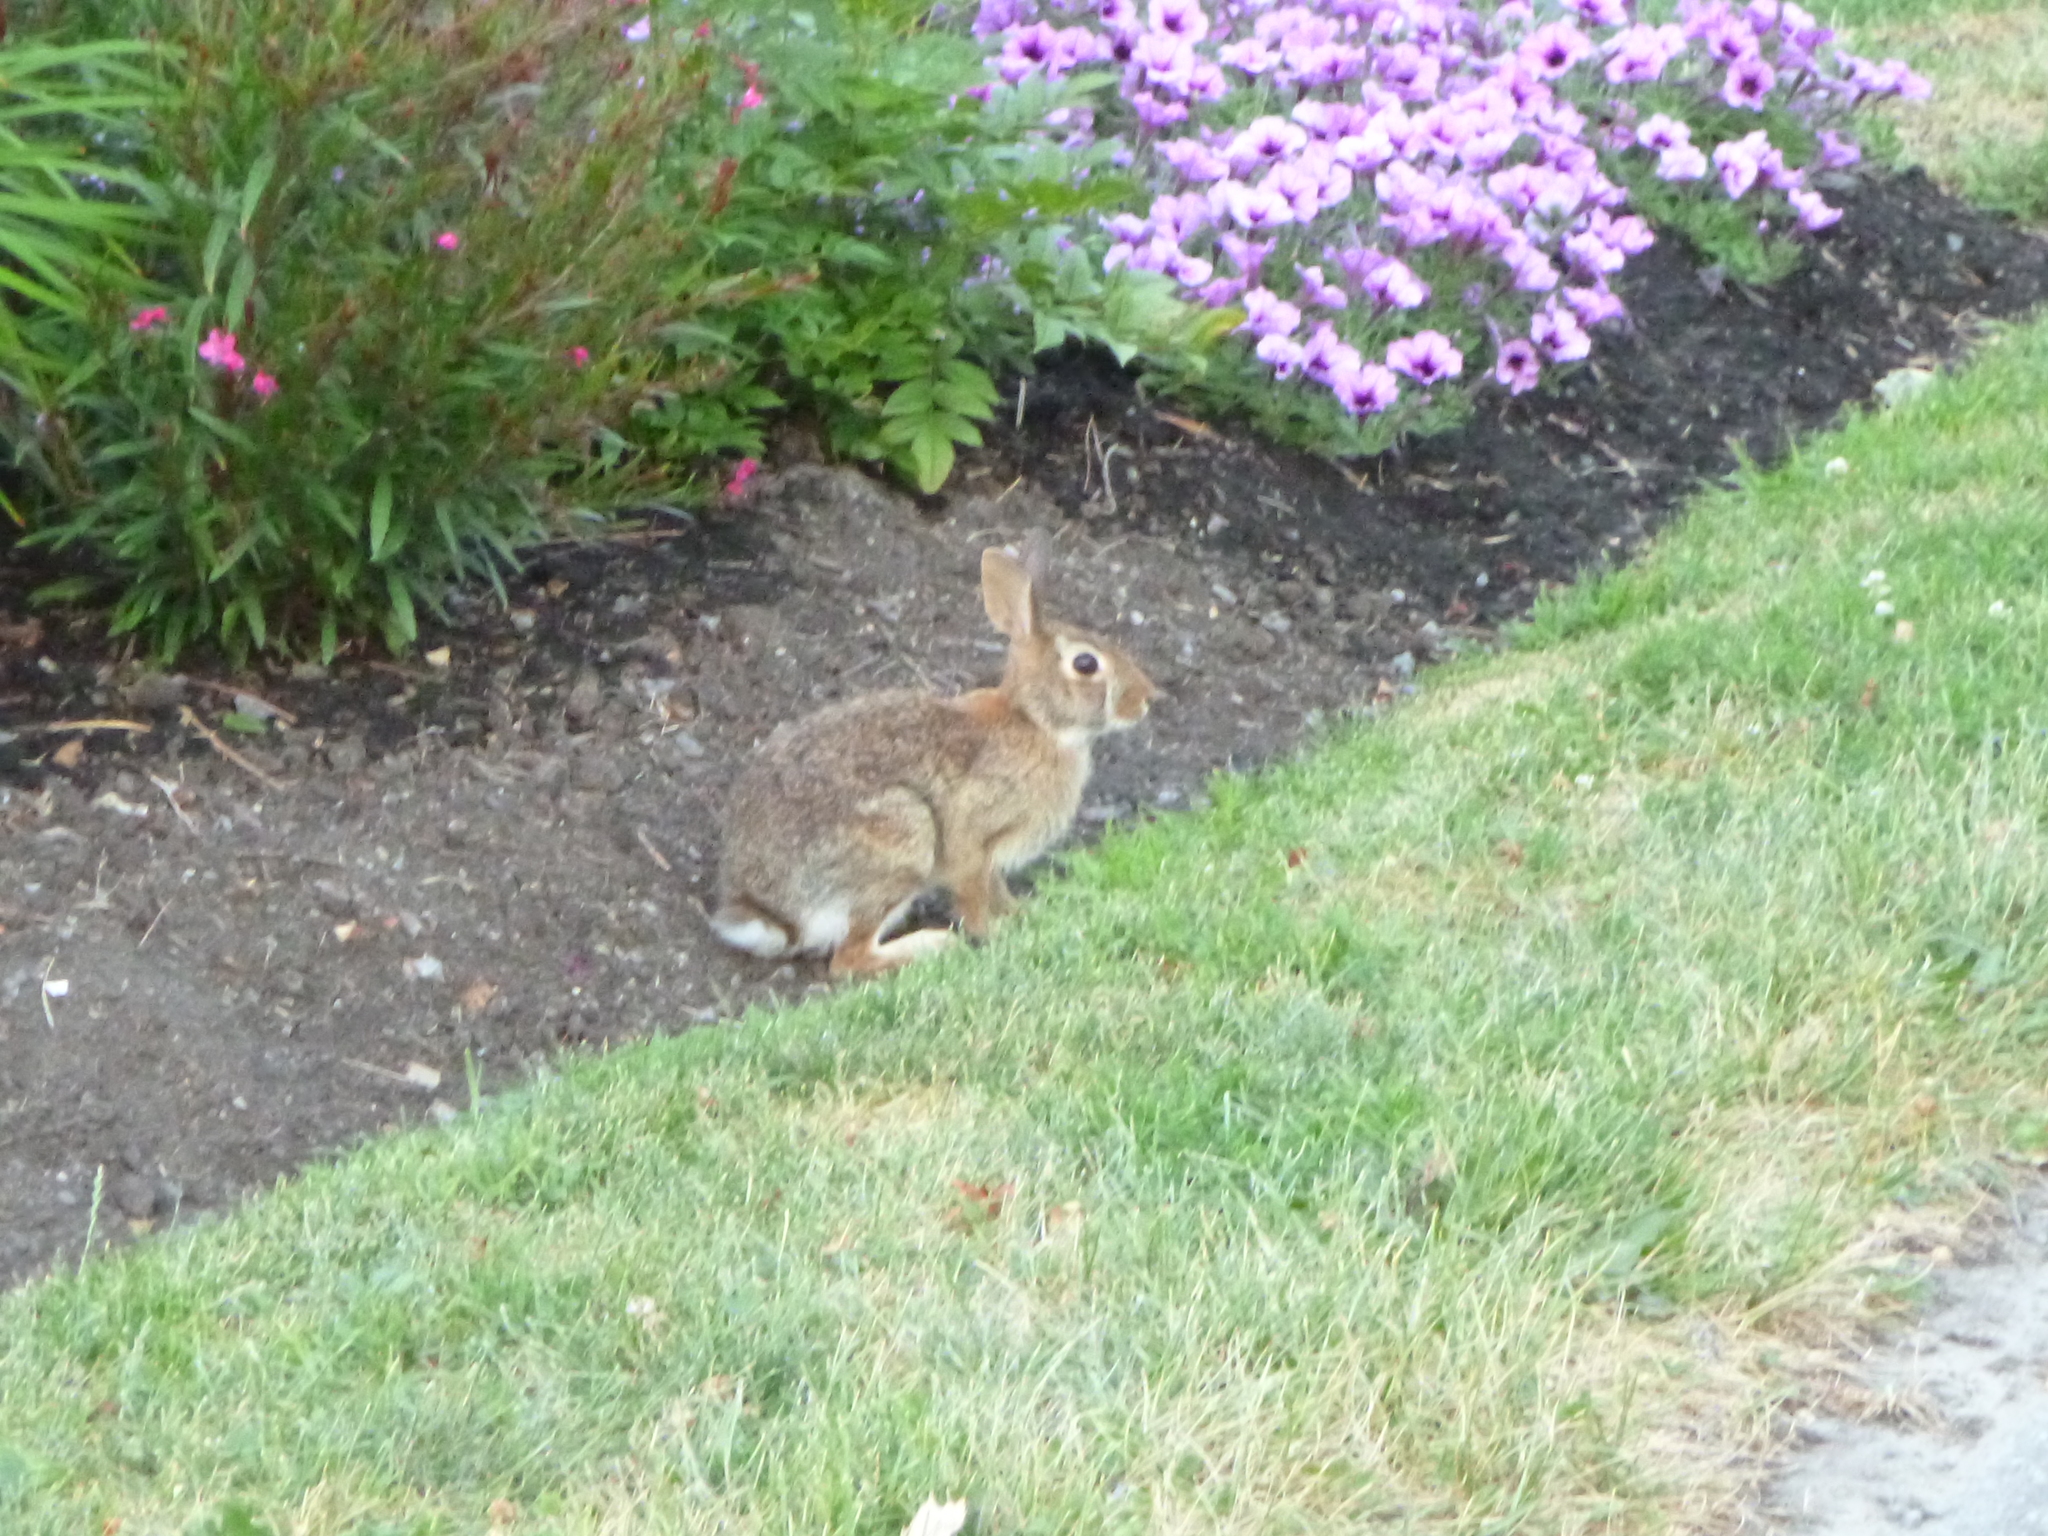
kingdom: Animalia
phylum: Chordata
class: Mammalia
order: Lagomorpha
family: Leporidae
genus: Sylvilagus
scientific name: Sylvilagus floridanus
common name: Eastern cottontail
